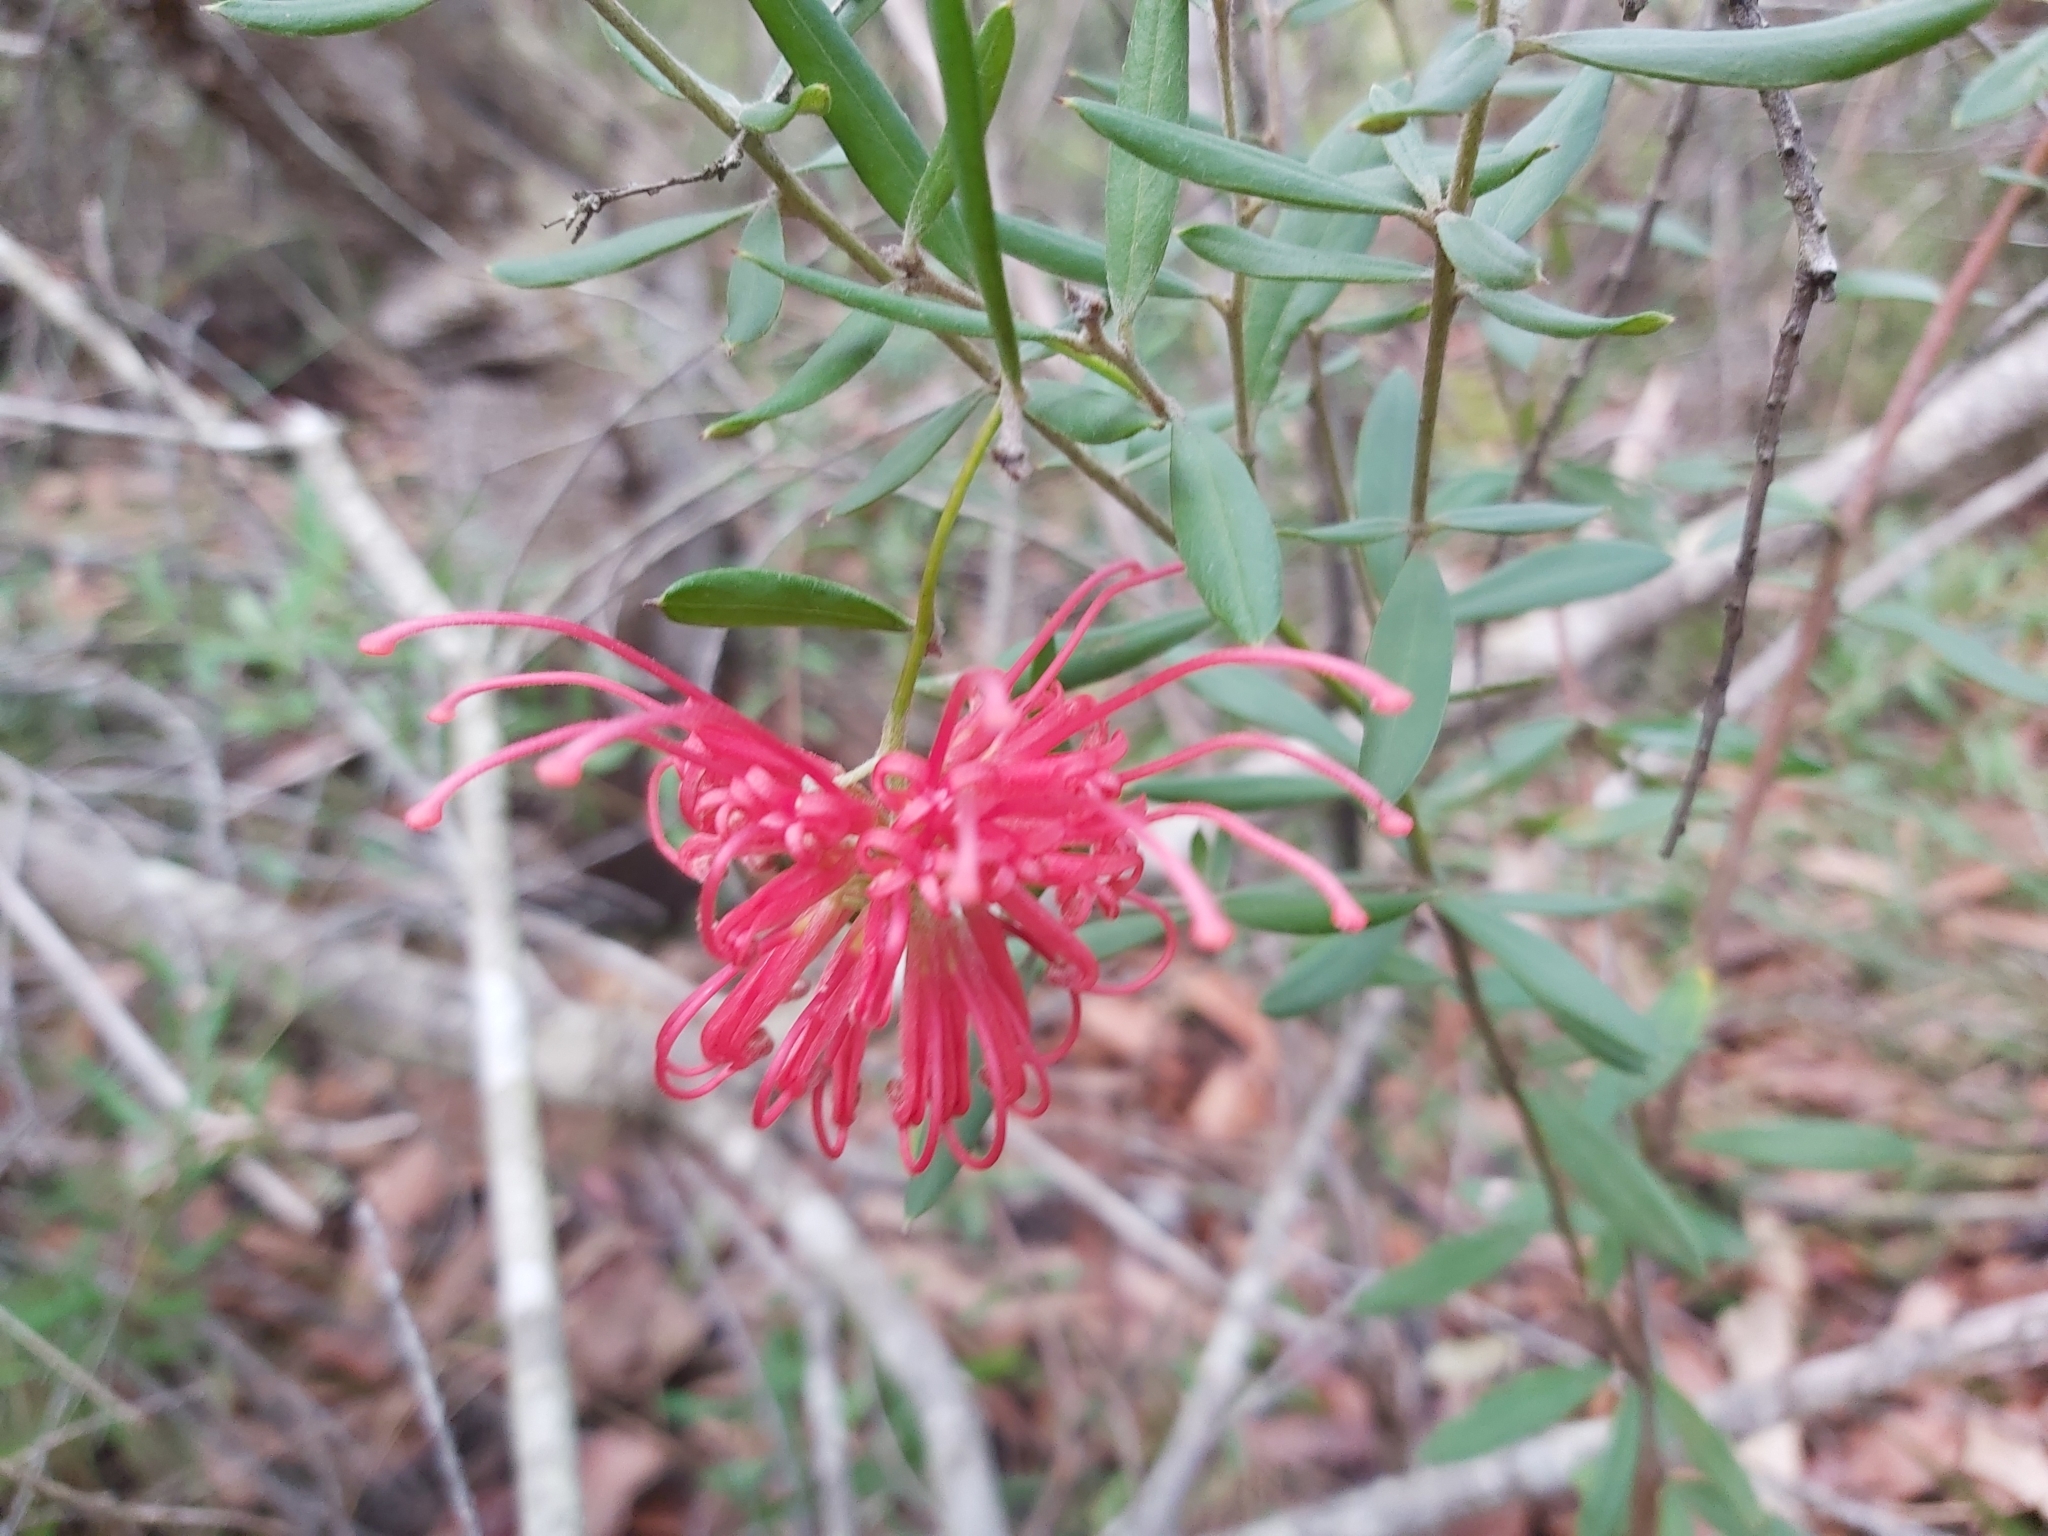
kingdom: Plantae
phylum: Tracheophyta
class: Magnoliopsida
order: Proteales
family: Proteaceae
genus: Grevillea
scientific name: Grevillea speciosa
